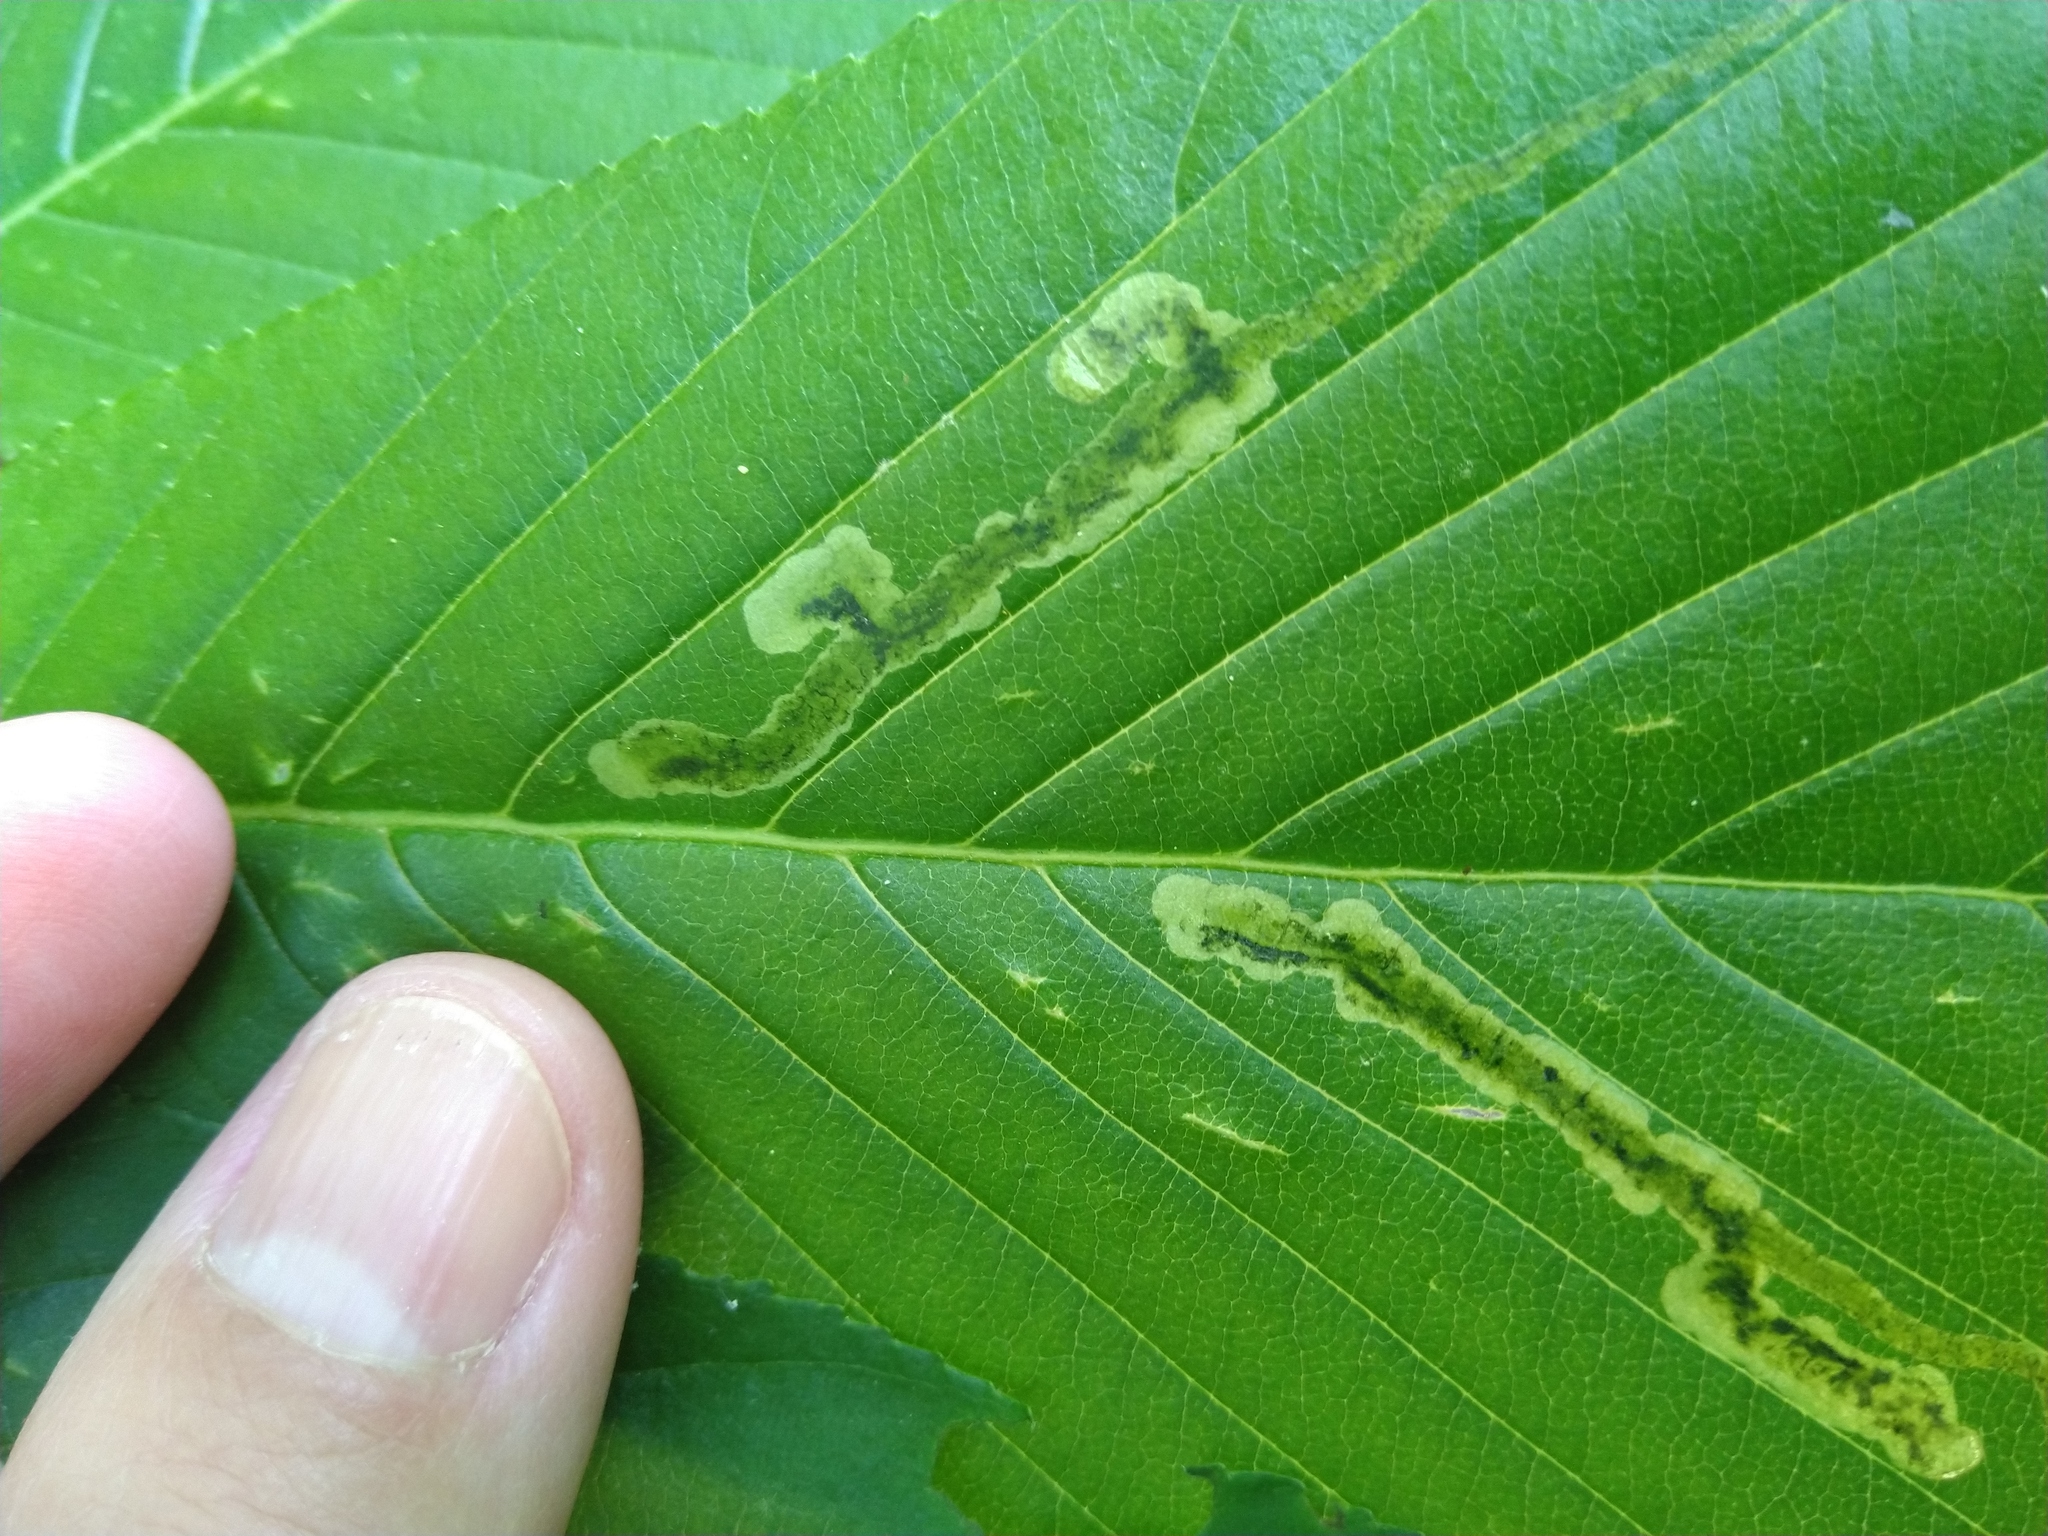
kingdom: Animalia
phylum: Arthropoda
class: Insecta
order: Diptera
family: Agromyzidae
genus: Phytomyza
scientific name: Phytomyza aesculi
